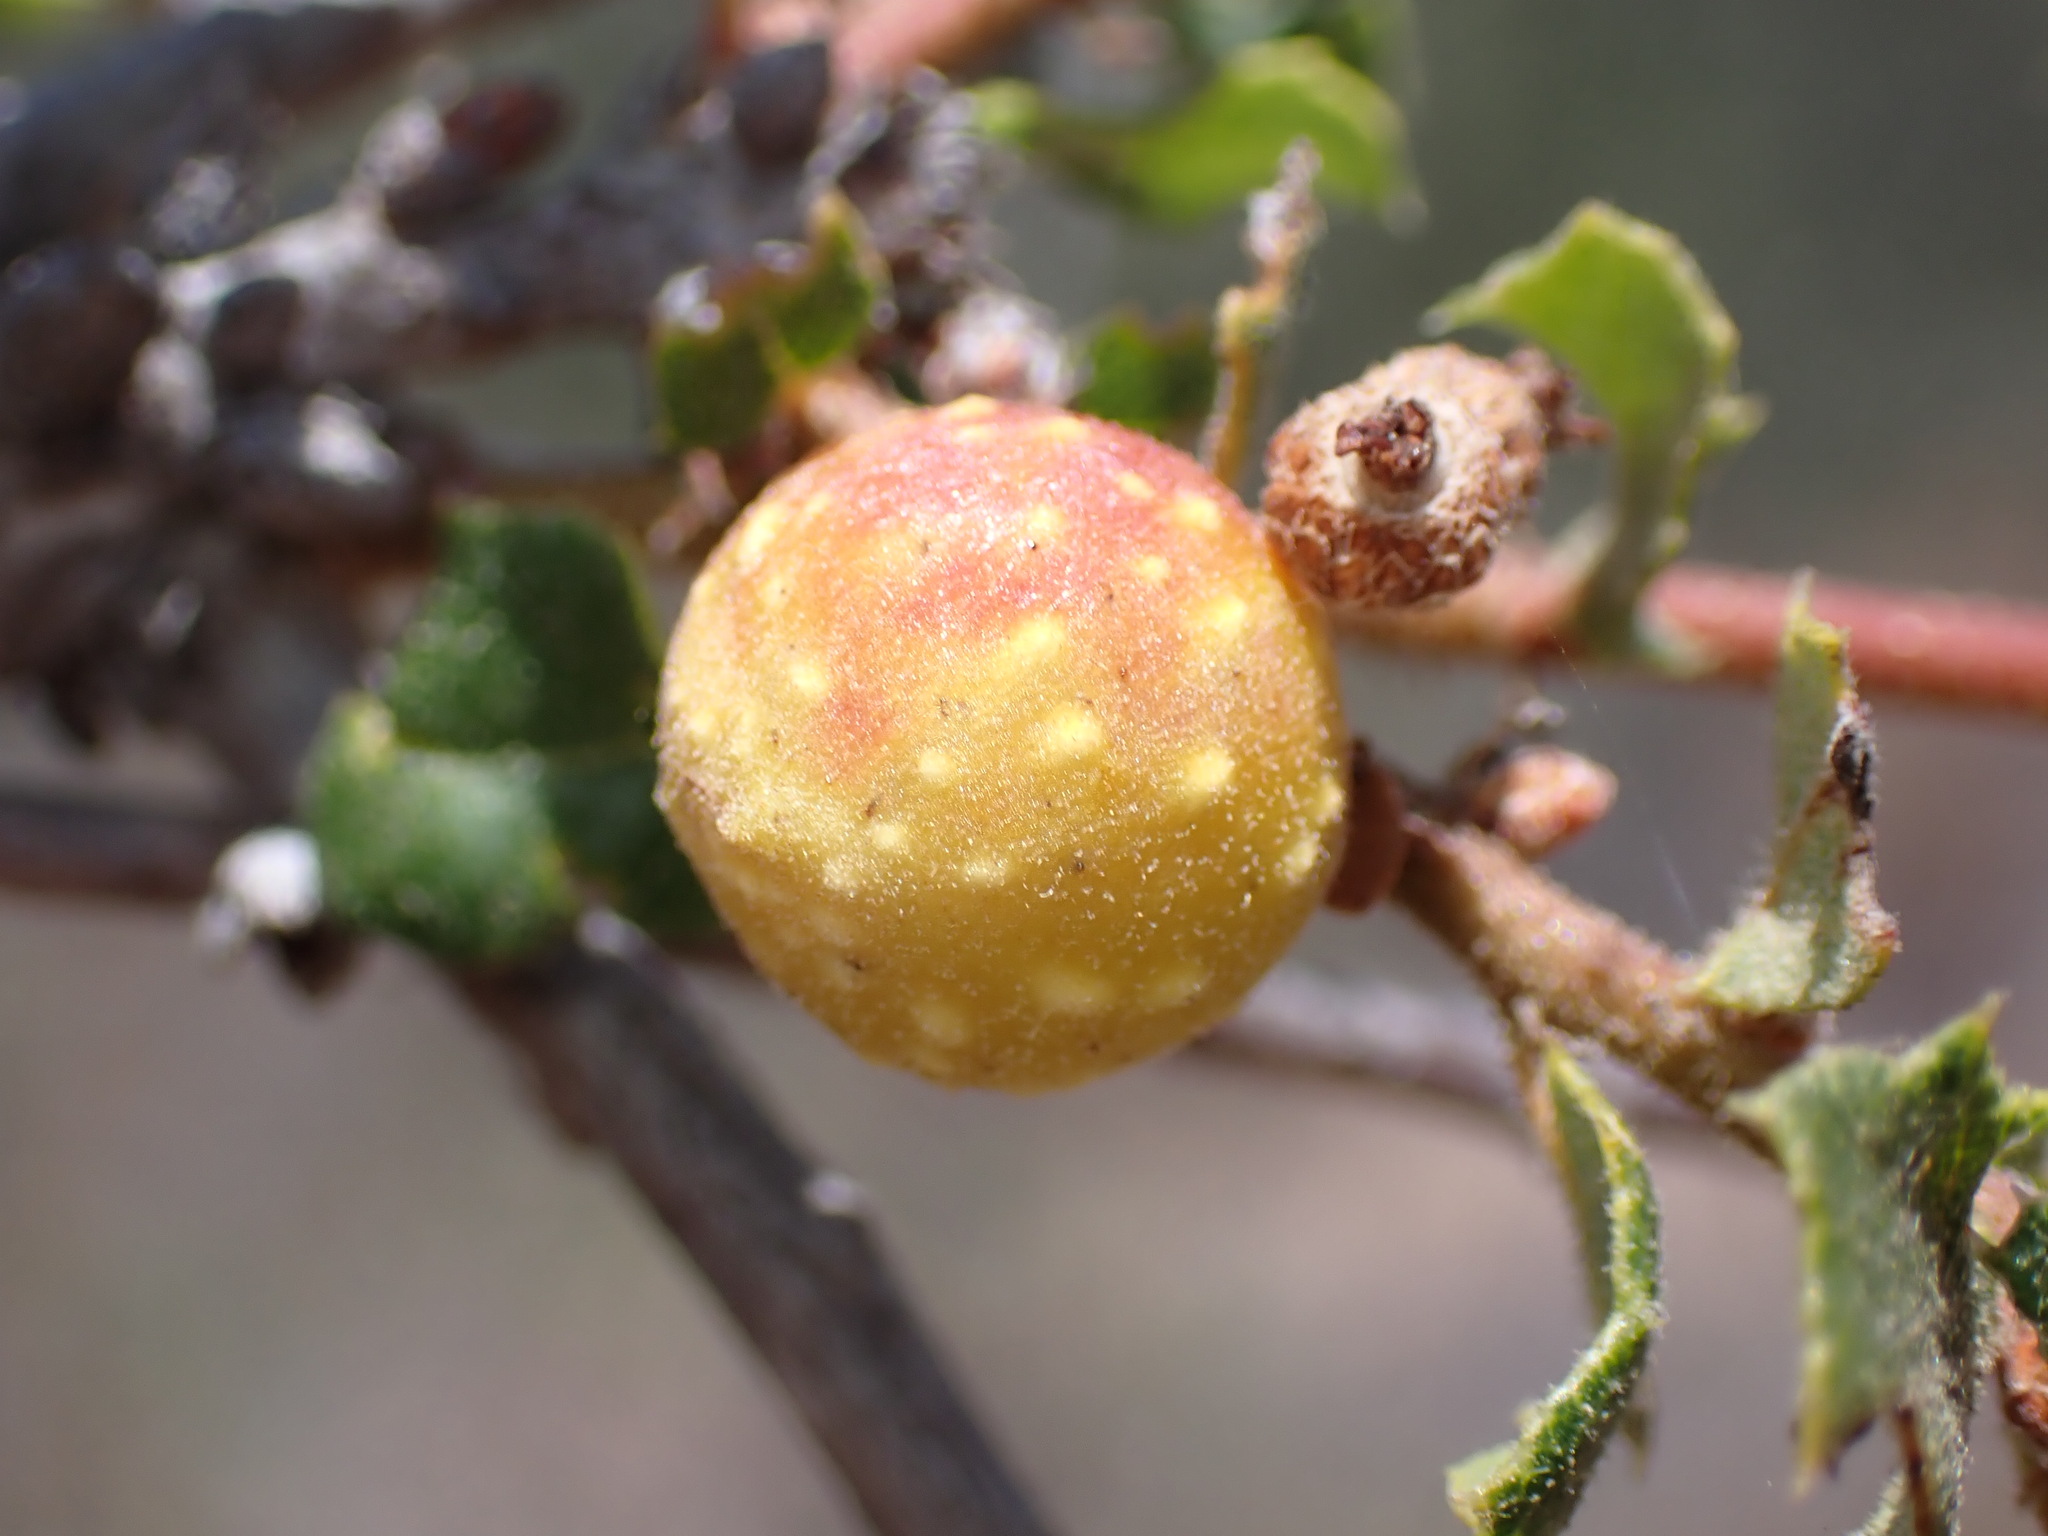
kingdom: Animalia
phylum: Arthropoda
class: Insecta
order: Hymenoptera
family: Cynipidae
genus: Burnettweldia
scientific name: Burnettweldia
